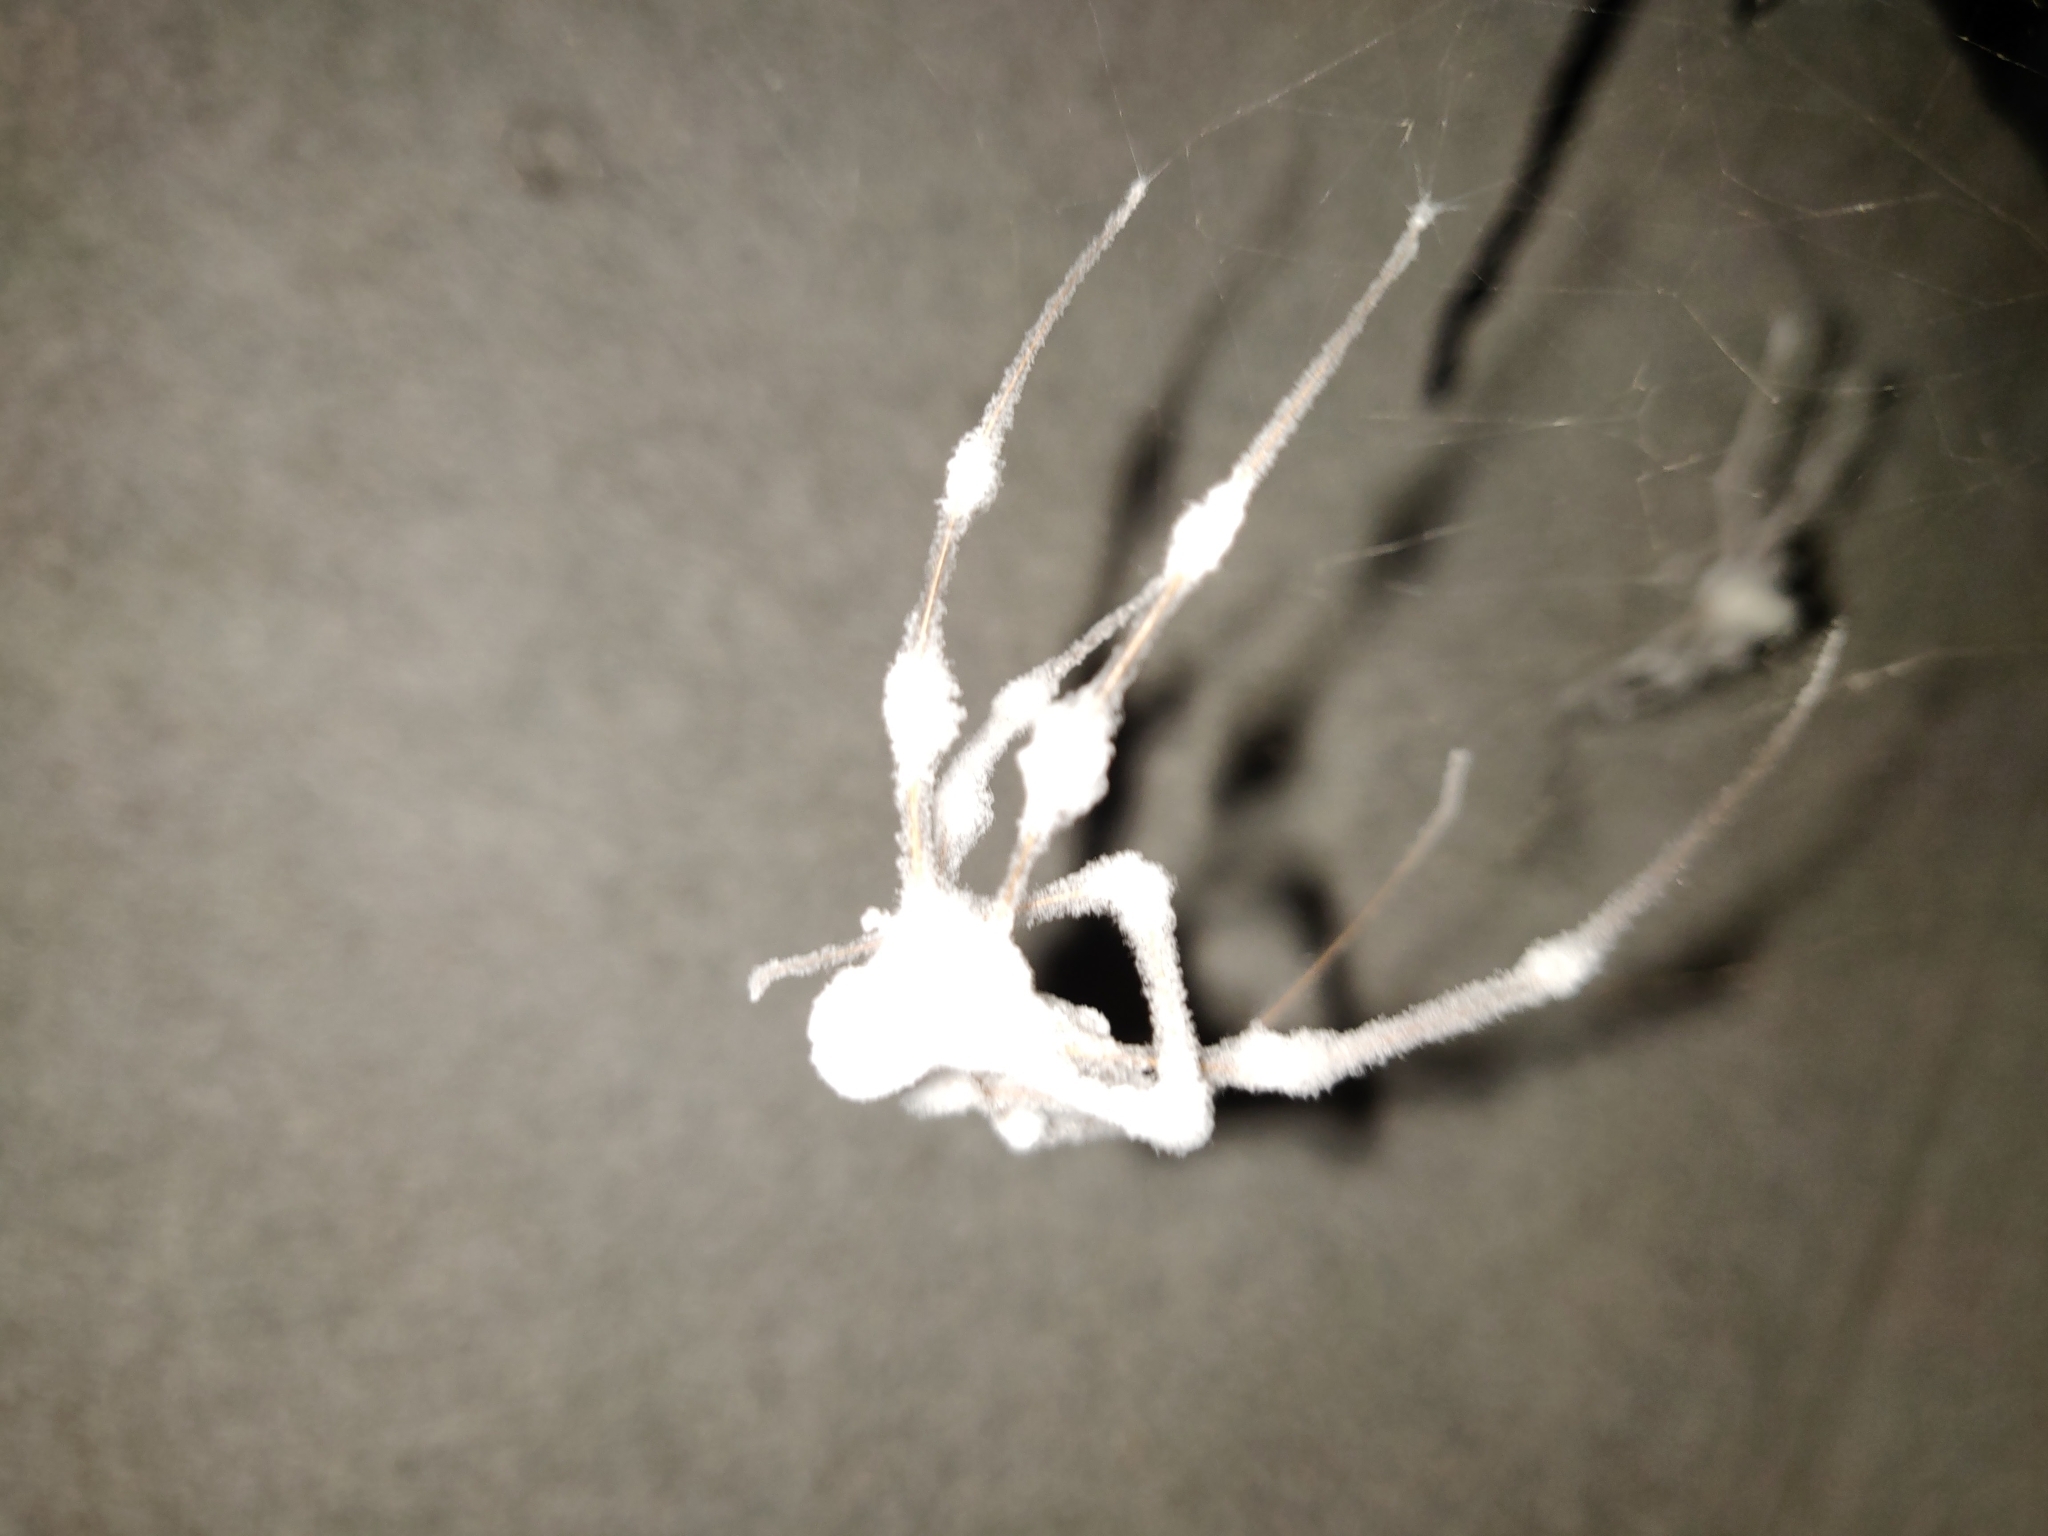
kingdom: Fungi
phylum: Ascomycota
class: Sordariomycetes
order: Hypocreales
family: Cordycipitaceae
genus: Lecanicillium
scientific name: Lecanicillium tenuipes
